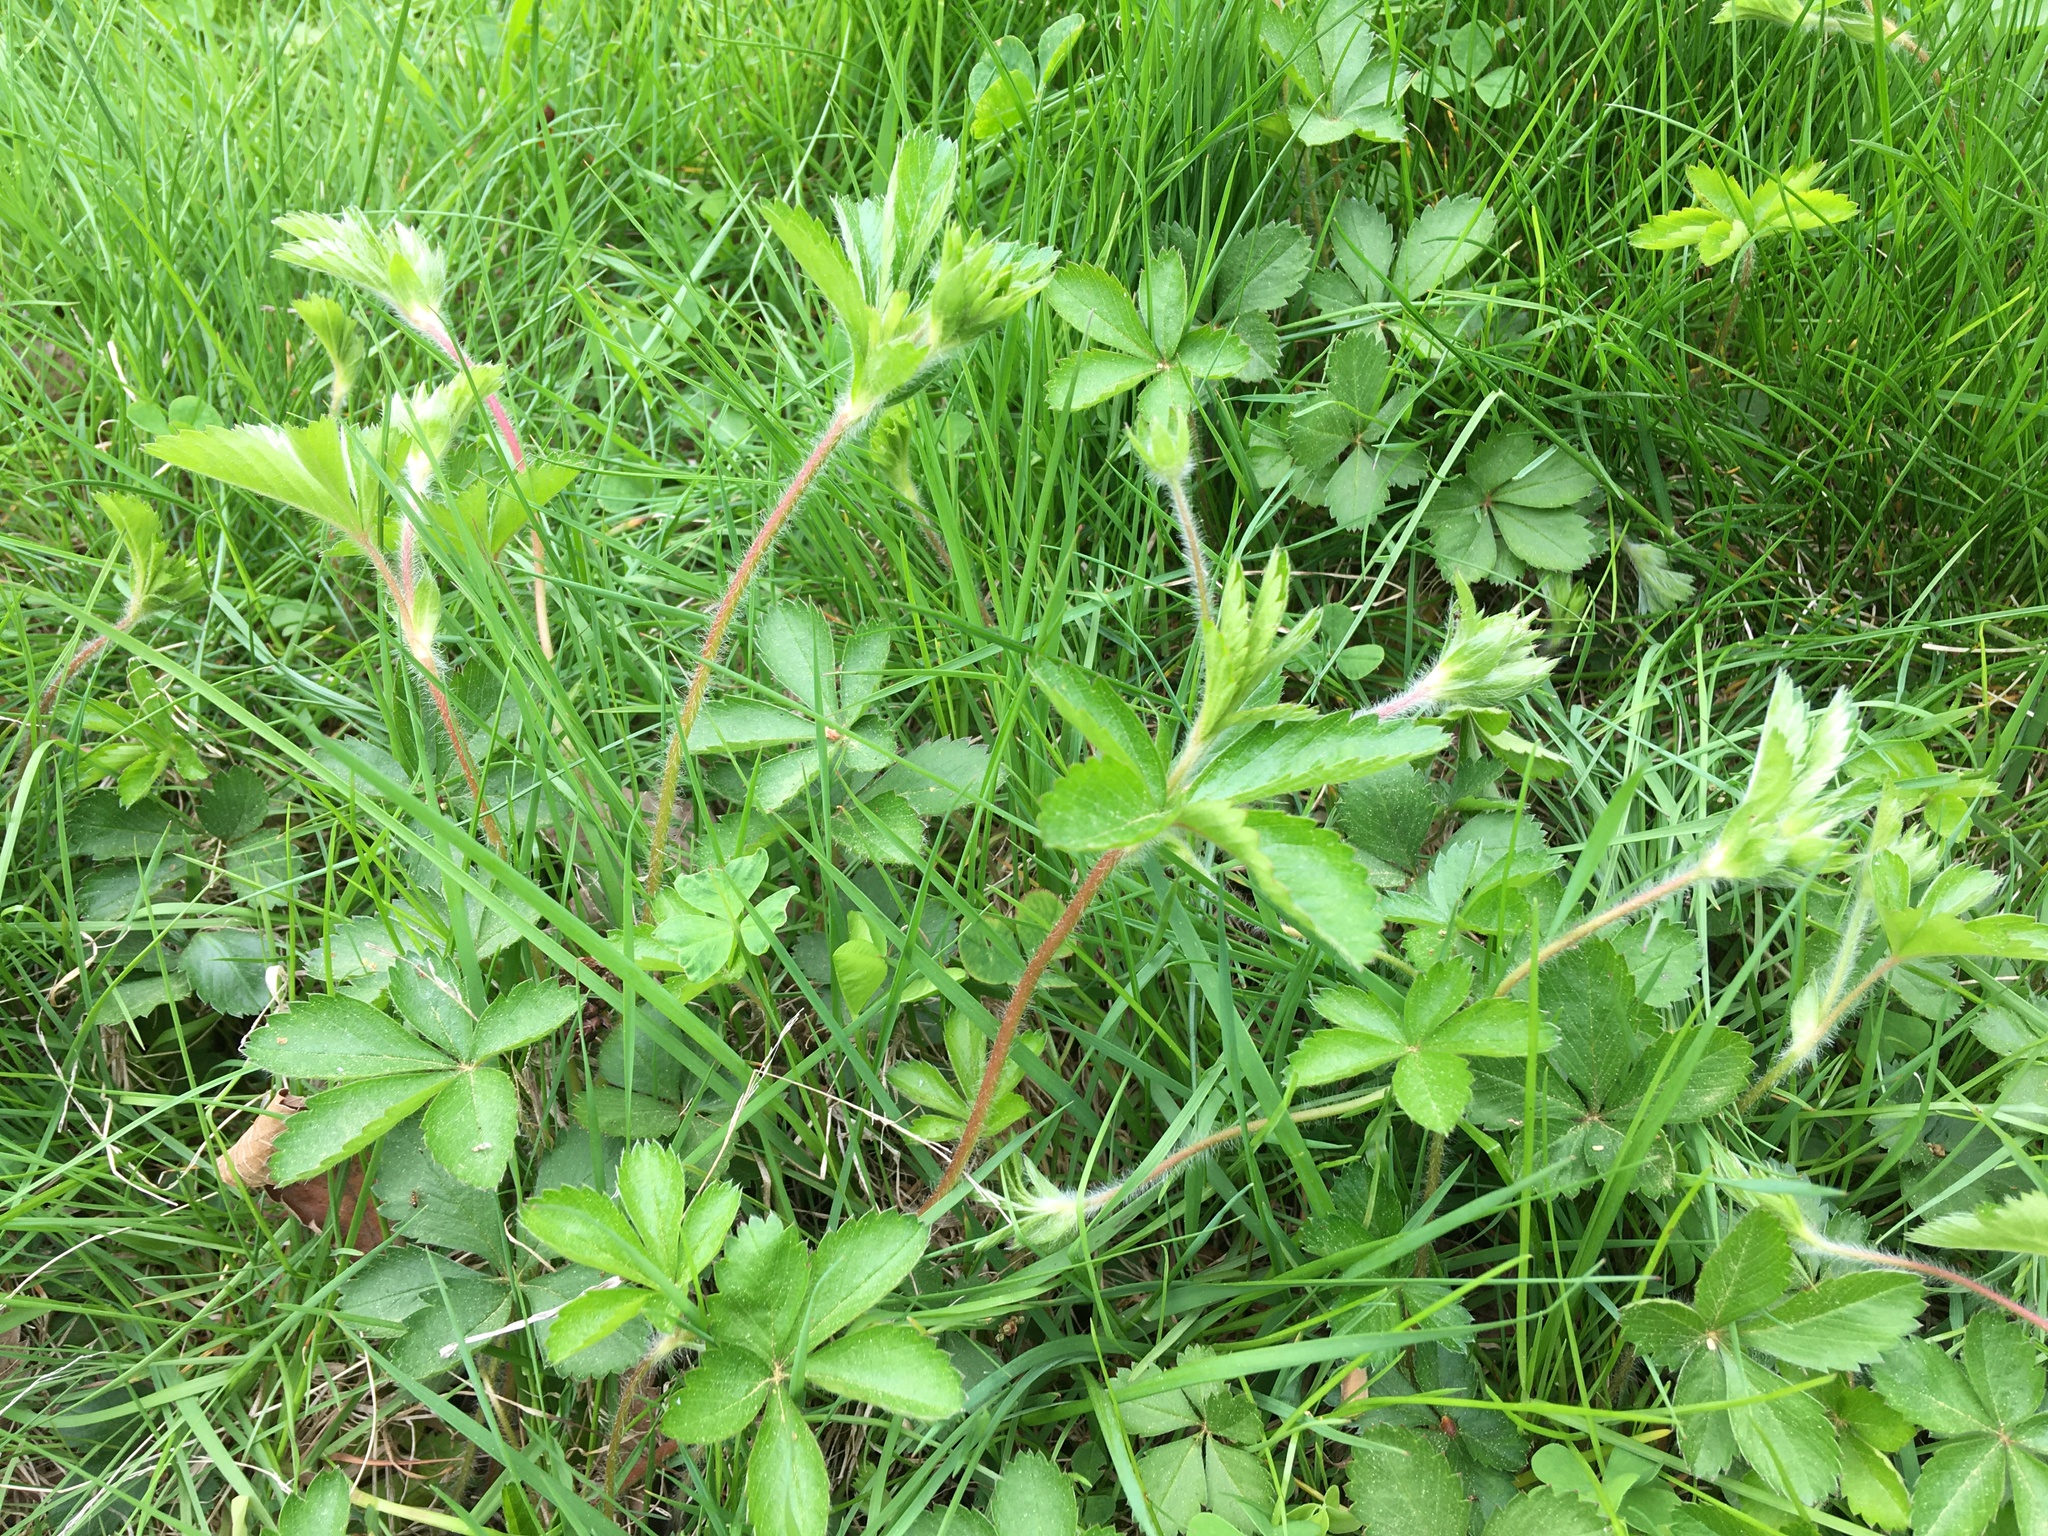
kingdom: Plantae
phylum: Tracheophyta
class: Magnoliopsida
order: Rosales
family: Rosaceae
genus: Potentilla
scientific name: Potentilla simplex
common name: Old field cinquefoil
